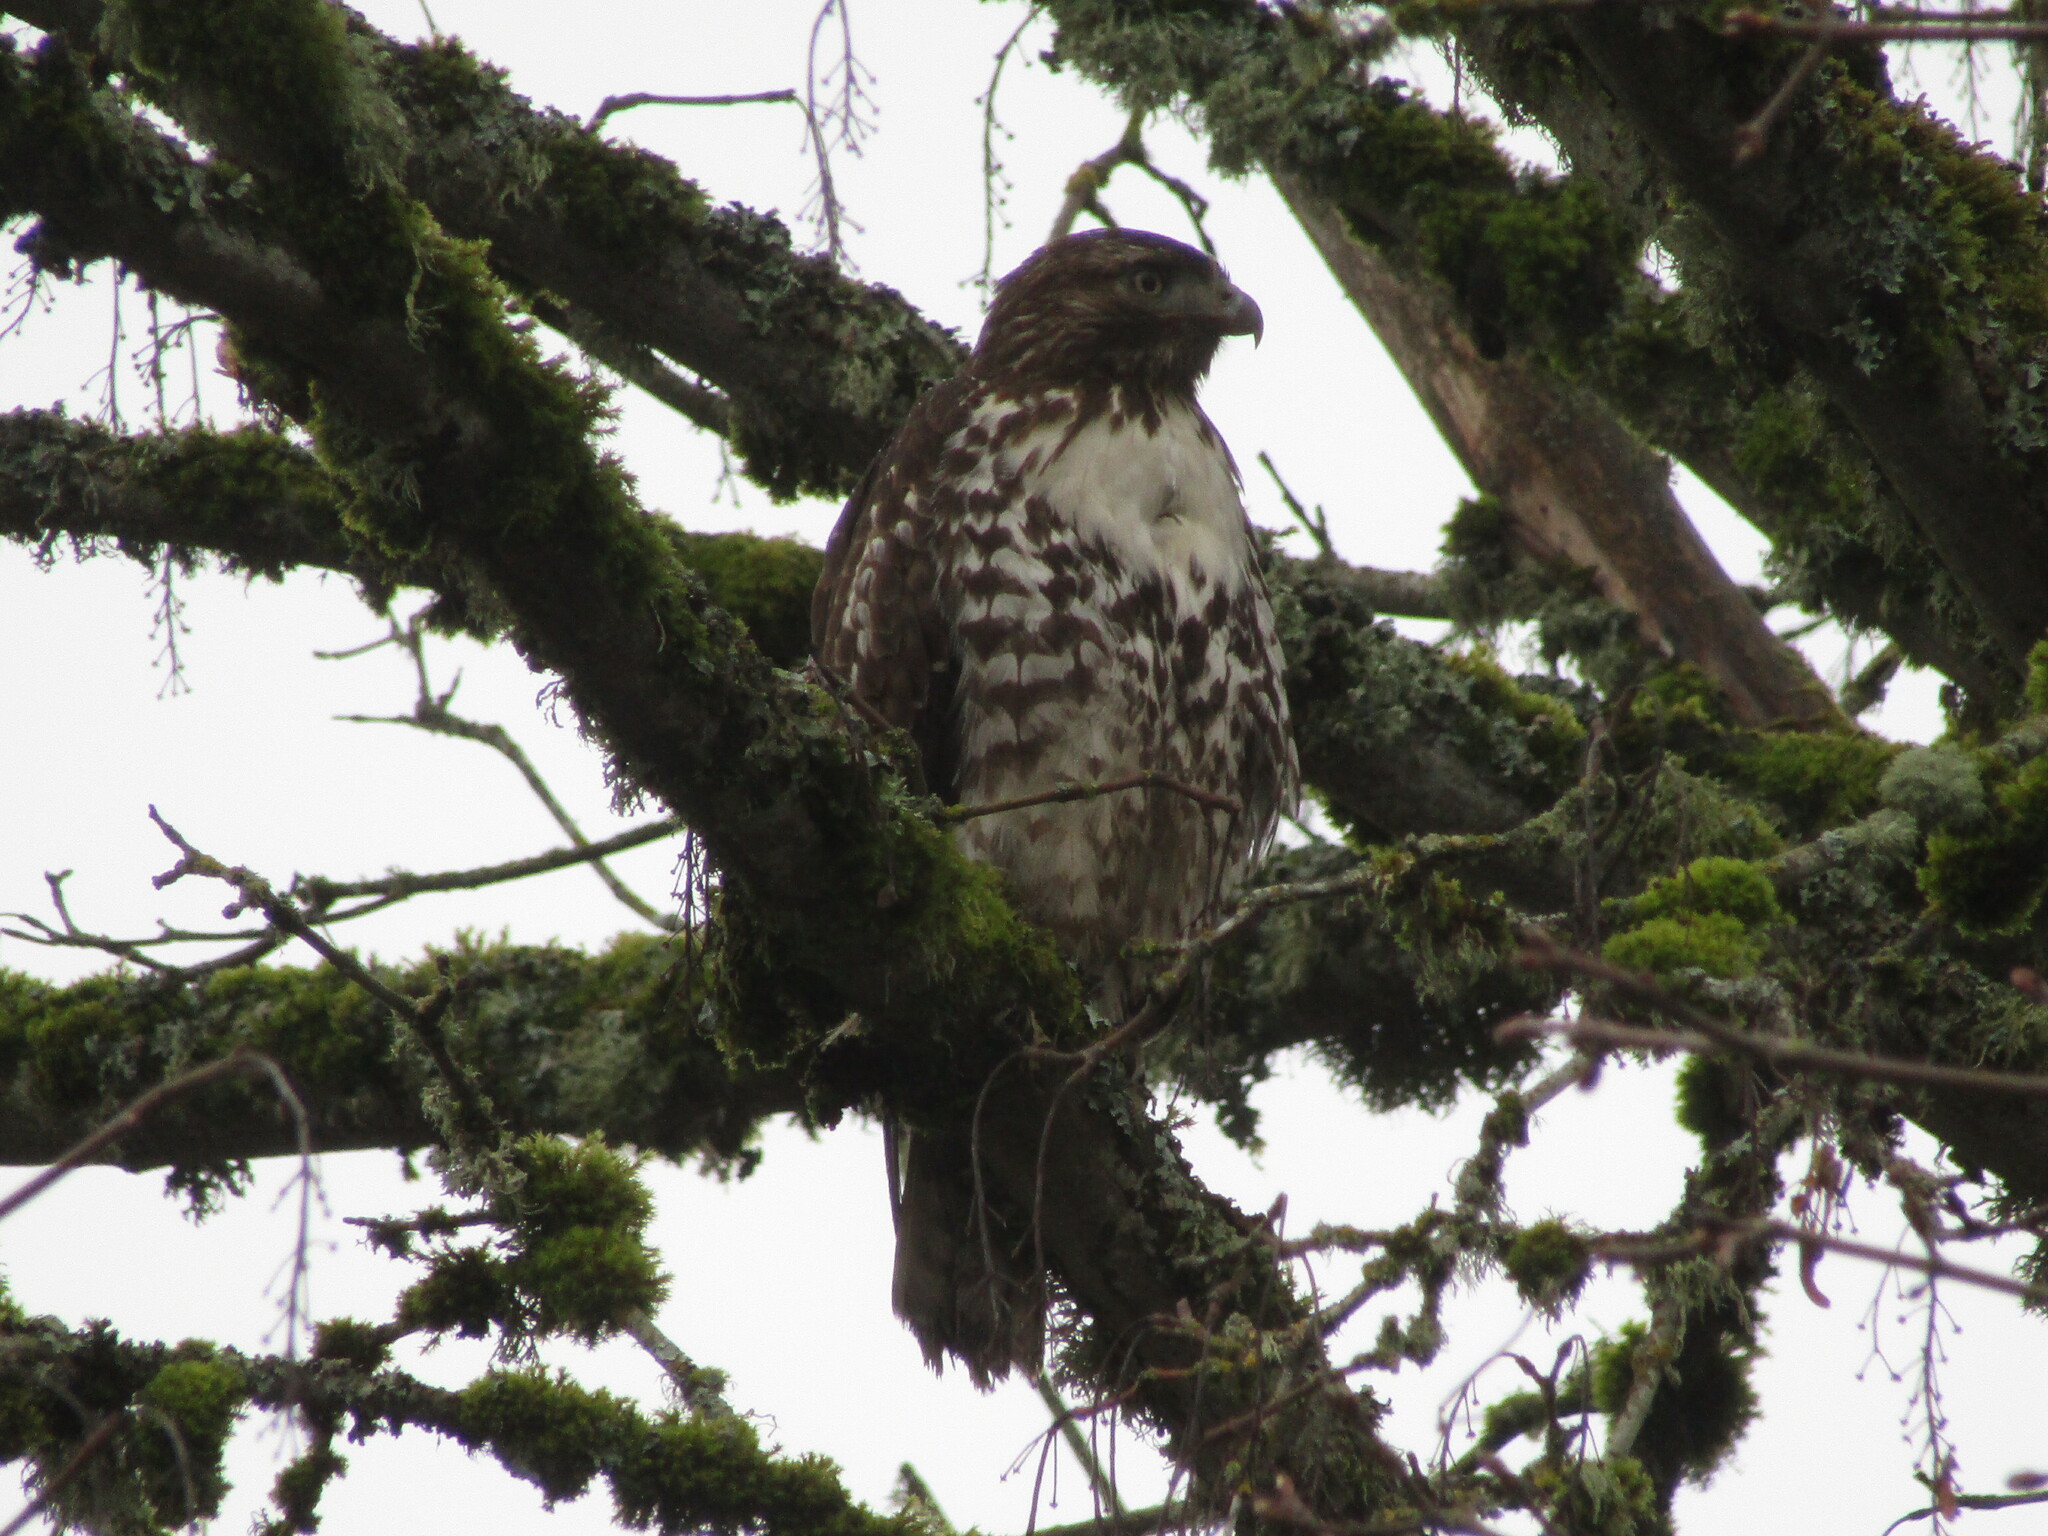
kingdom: Animalia
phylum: Chordata
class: Aves
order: Accipitriformes
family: Accipitridae
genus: Buteo
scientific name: Buteo jamaicensis
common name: Red-tailed hawk
